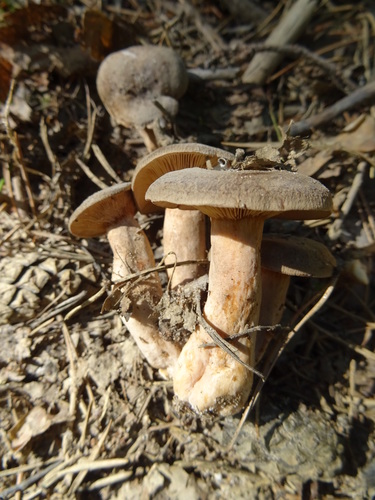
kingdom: Fungi
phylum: Basidiomycota
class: Agaricomycetes
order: Russulales
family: Russulaceae
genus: Lactarius
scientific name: Lactarius
